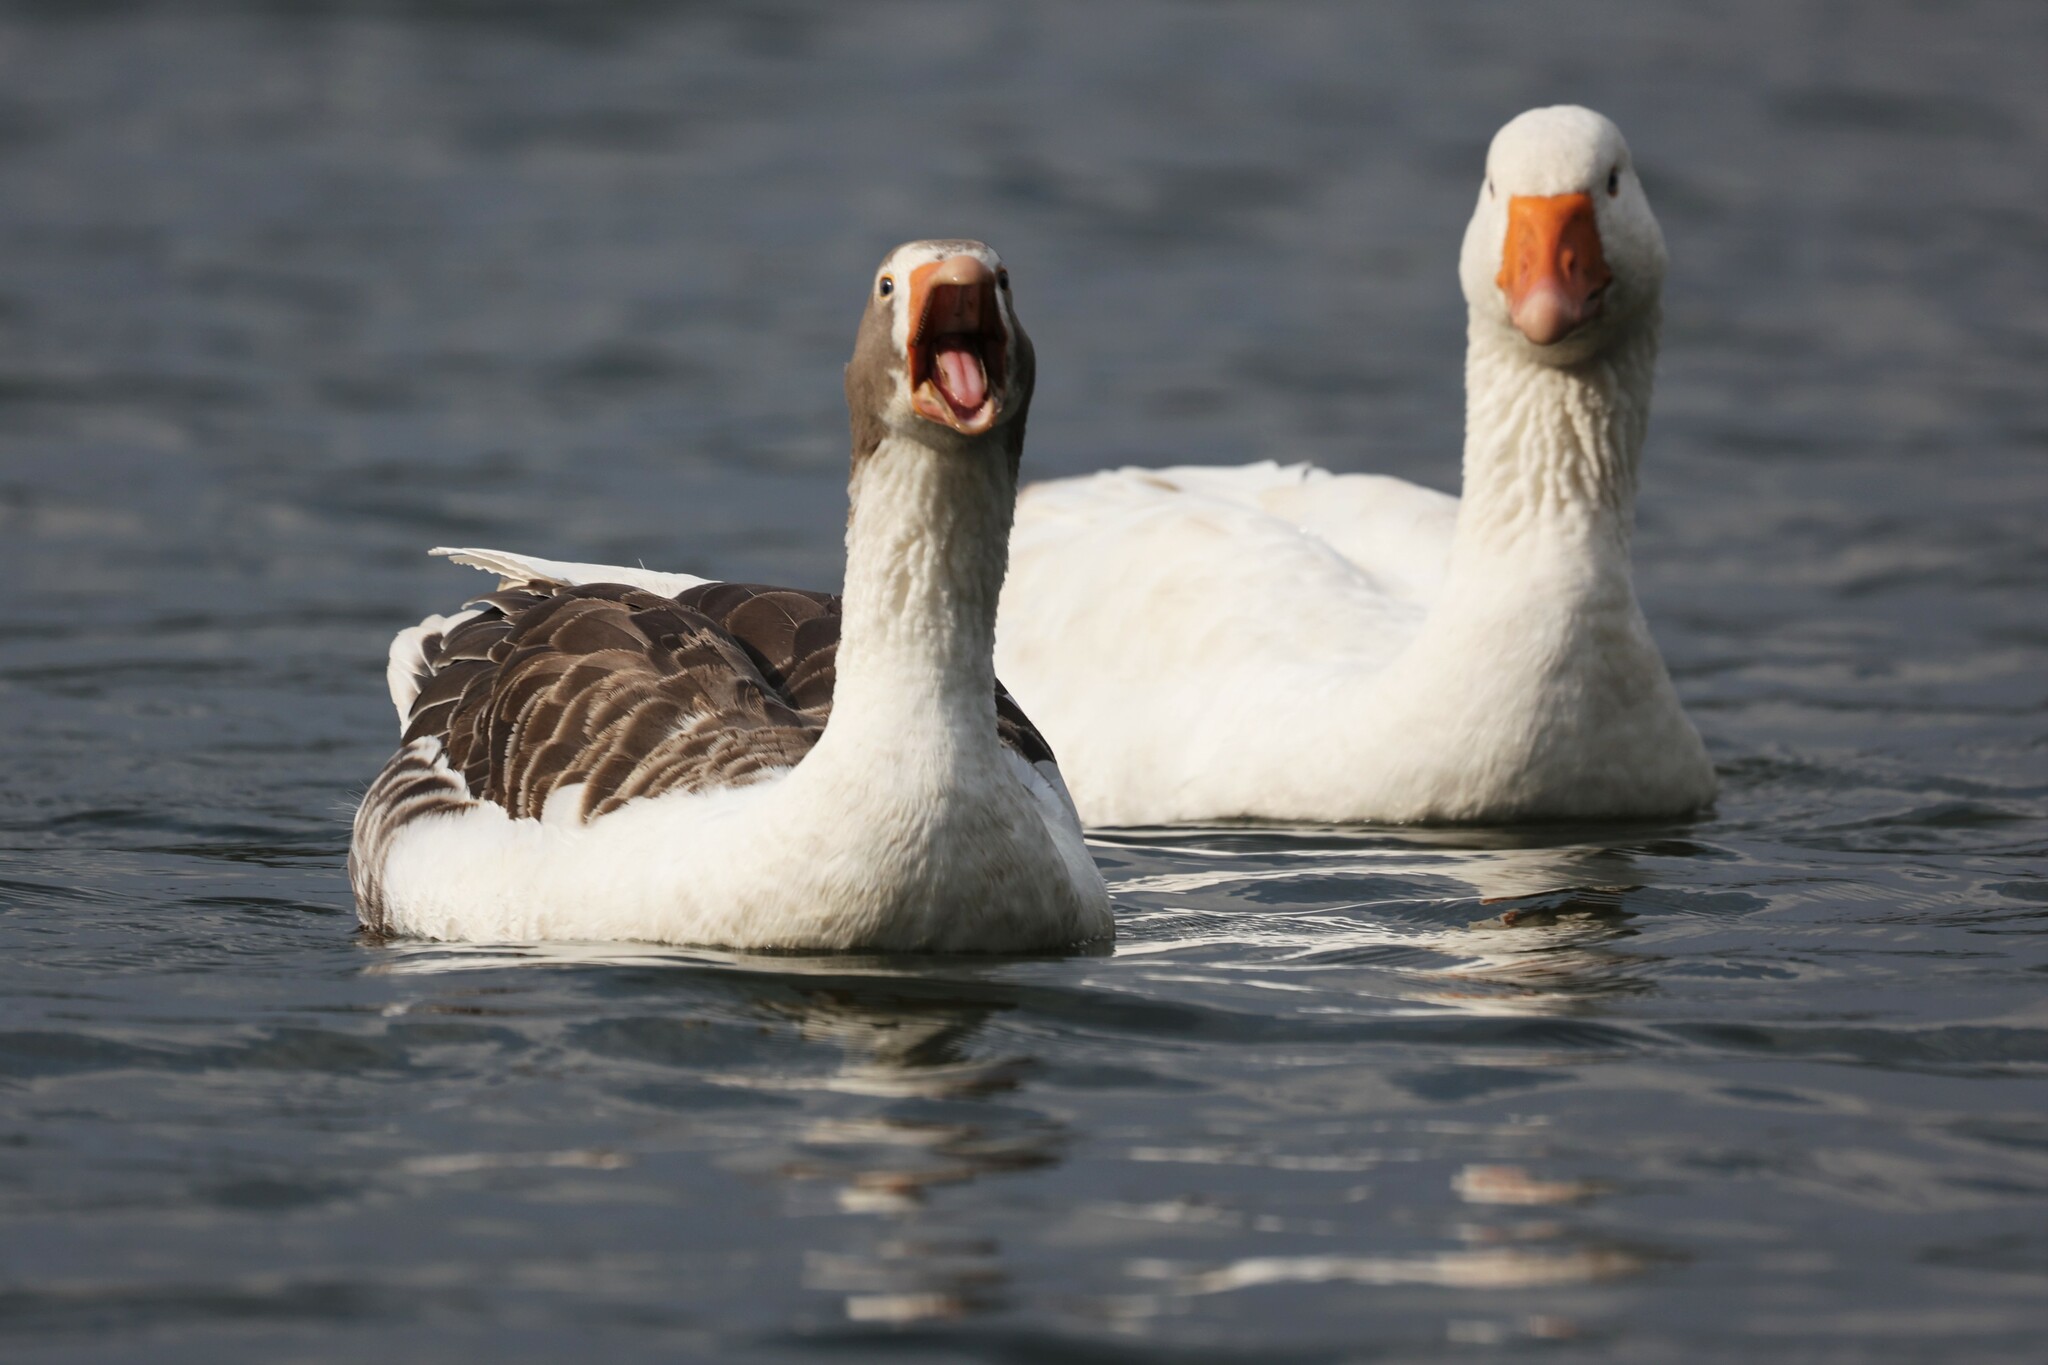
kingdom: Animalia
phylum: Chordata
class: Aves
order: Anseriformes
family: Anatidae
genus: Anser
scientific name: Anser anser
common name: Greylag goose
